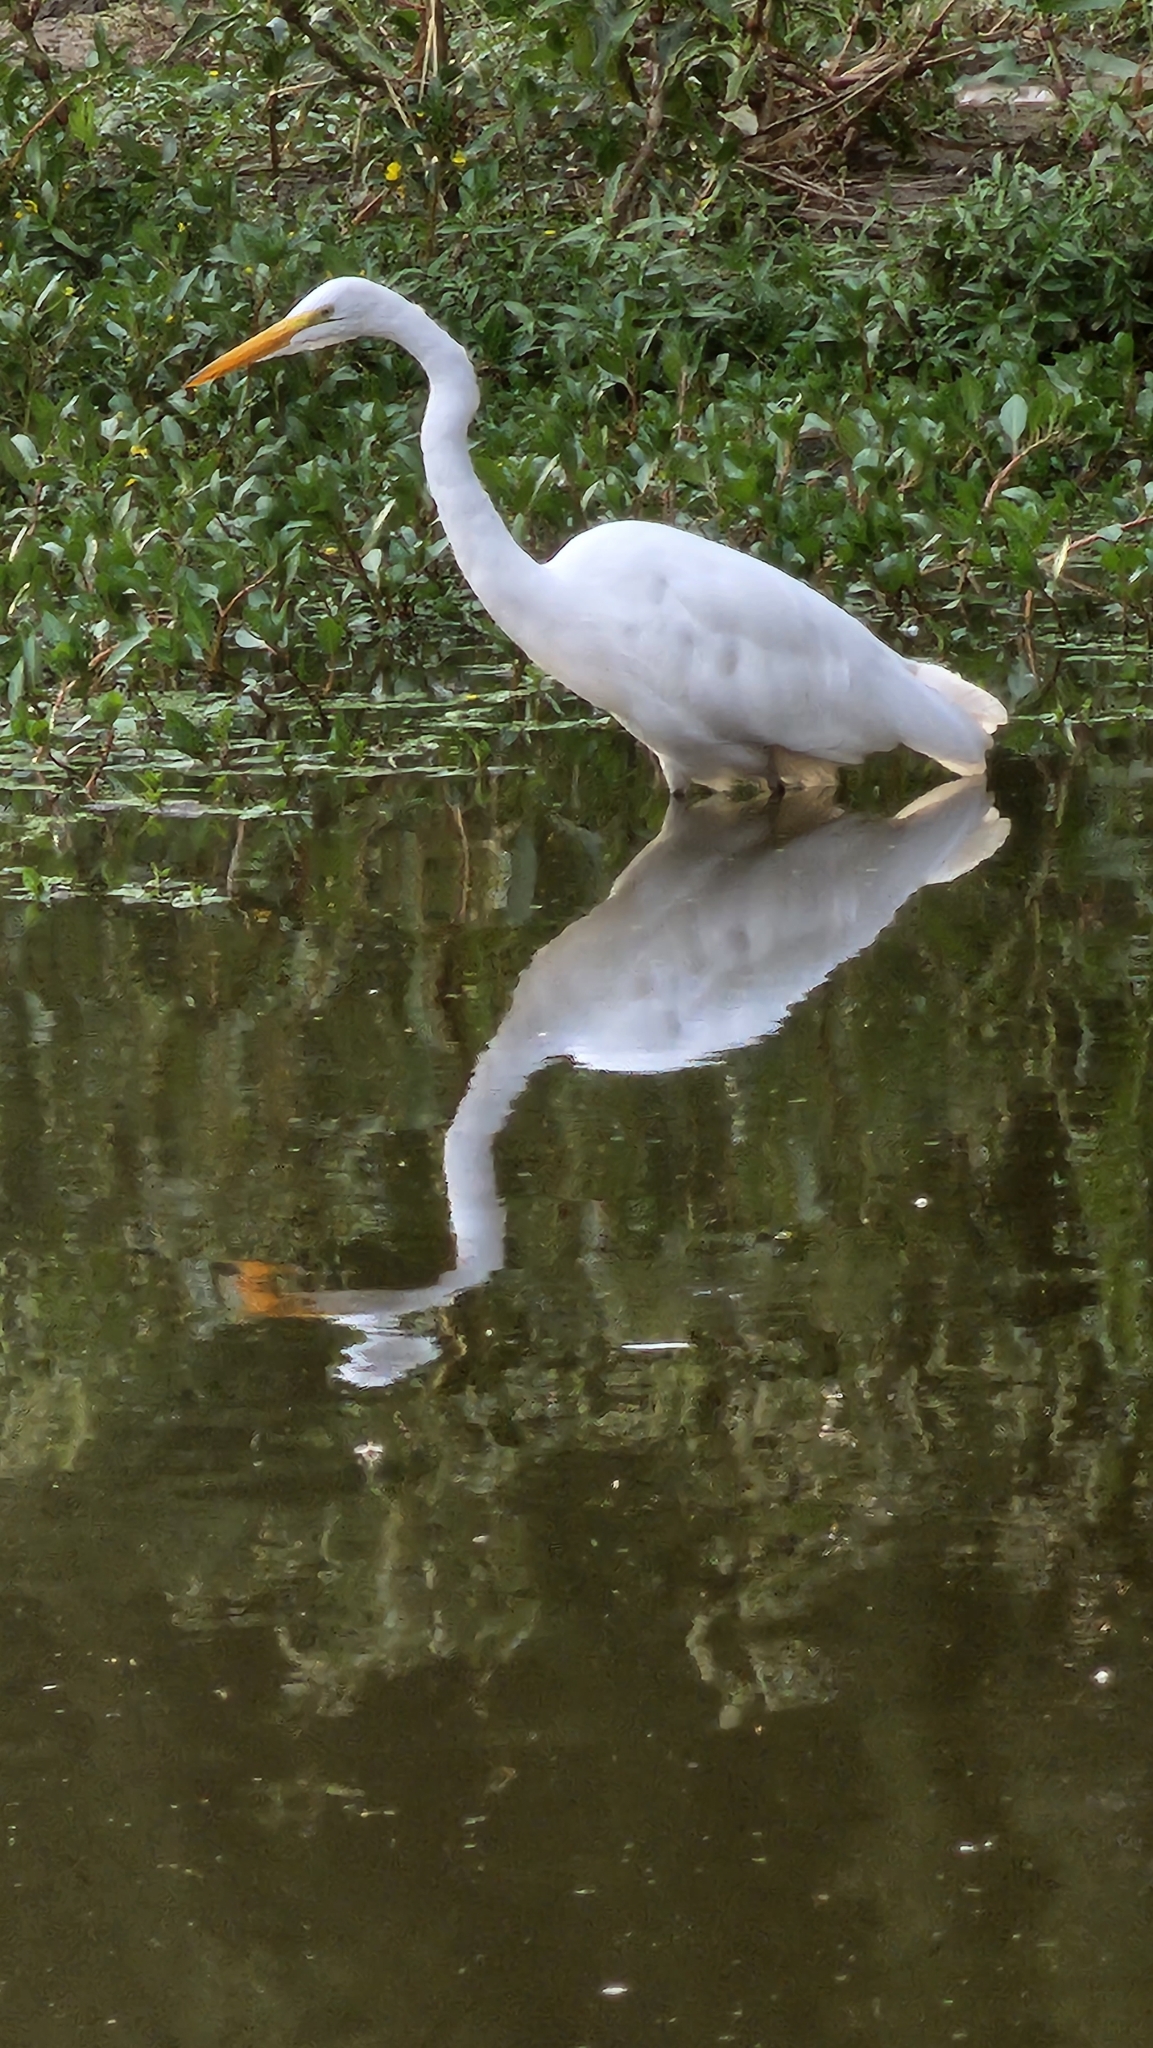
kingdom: Animalia
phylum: Chordata
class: Aves
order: Pelecaniformes
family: Ardeidae
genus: Ardea
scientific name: Ardea alba
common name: Great egret
